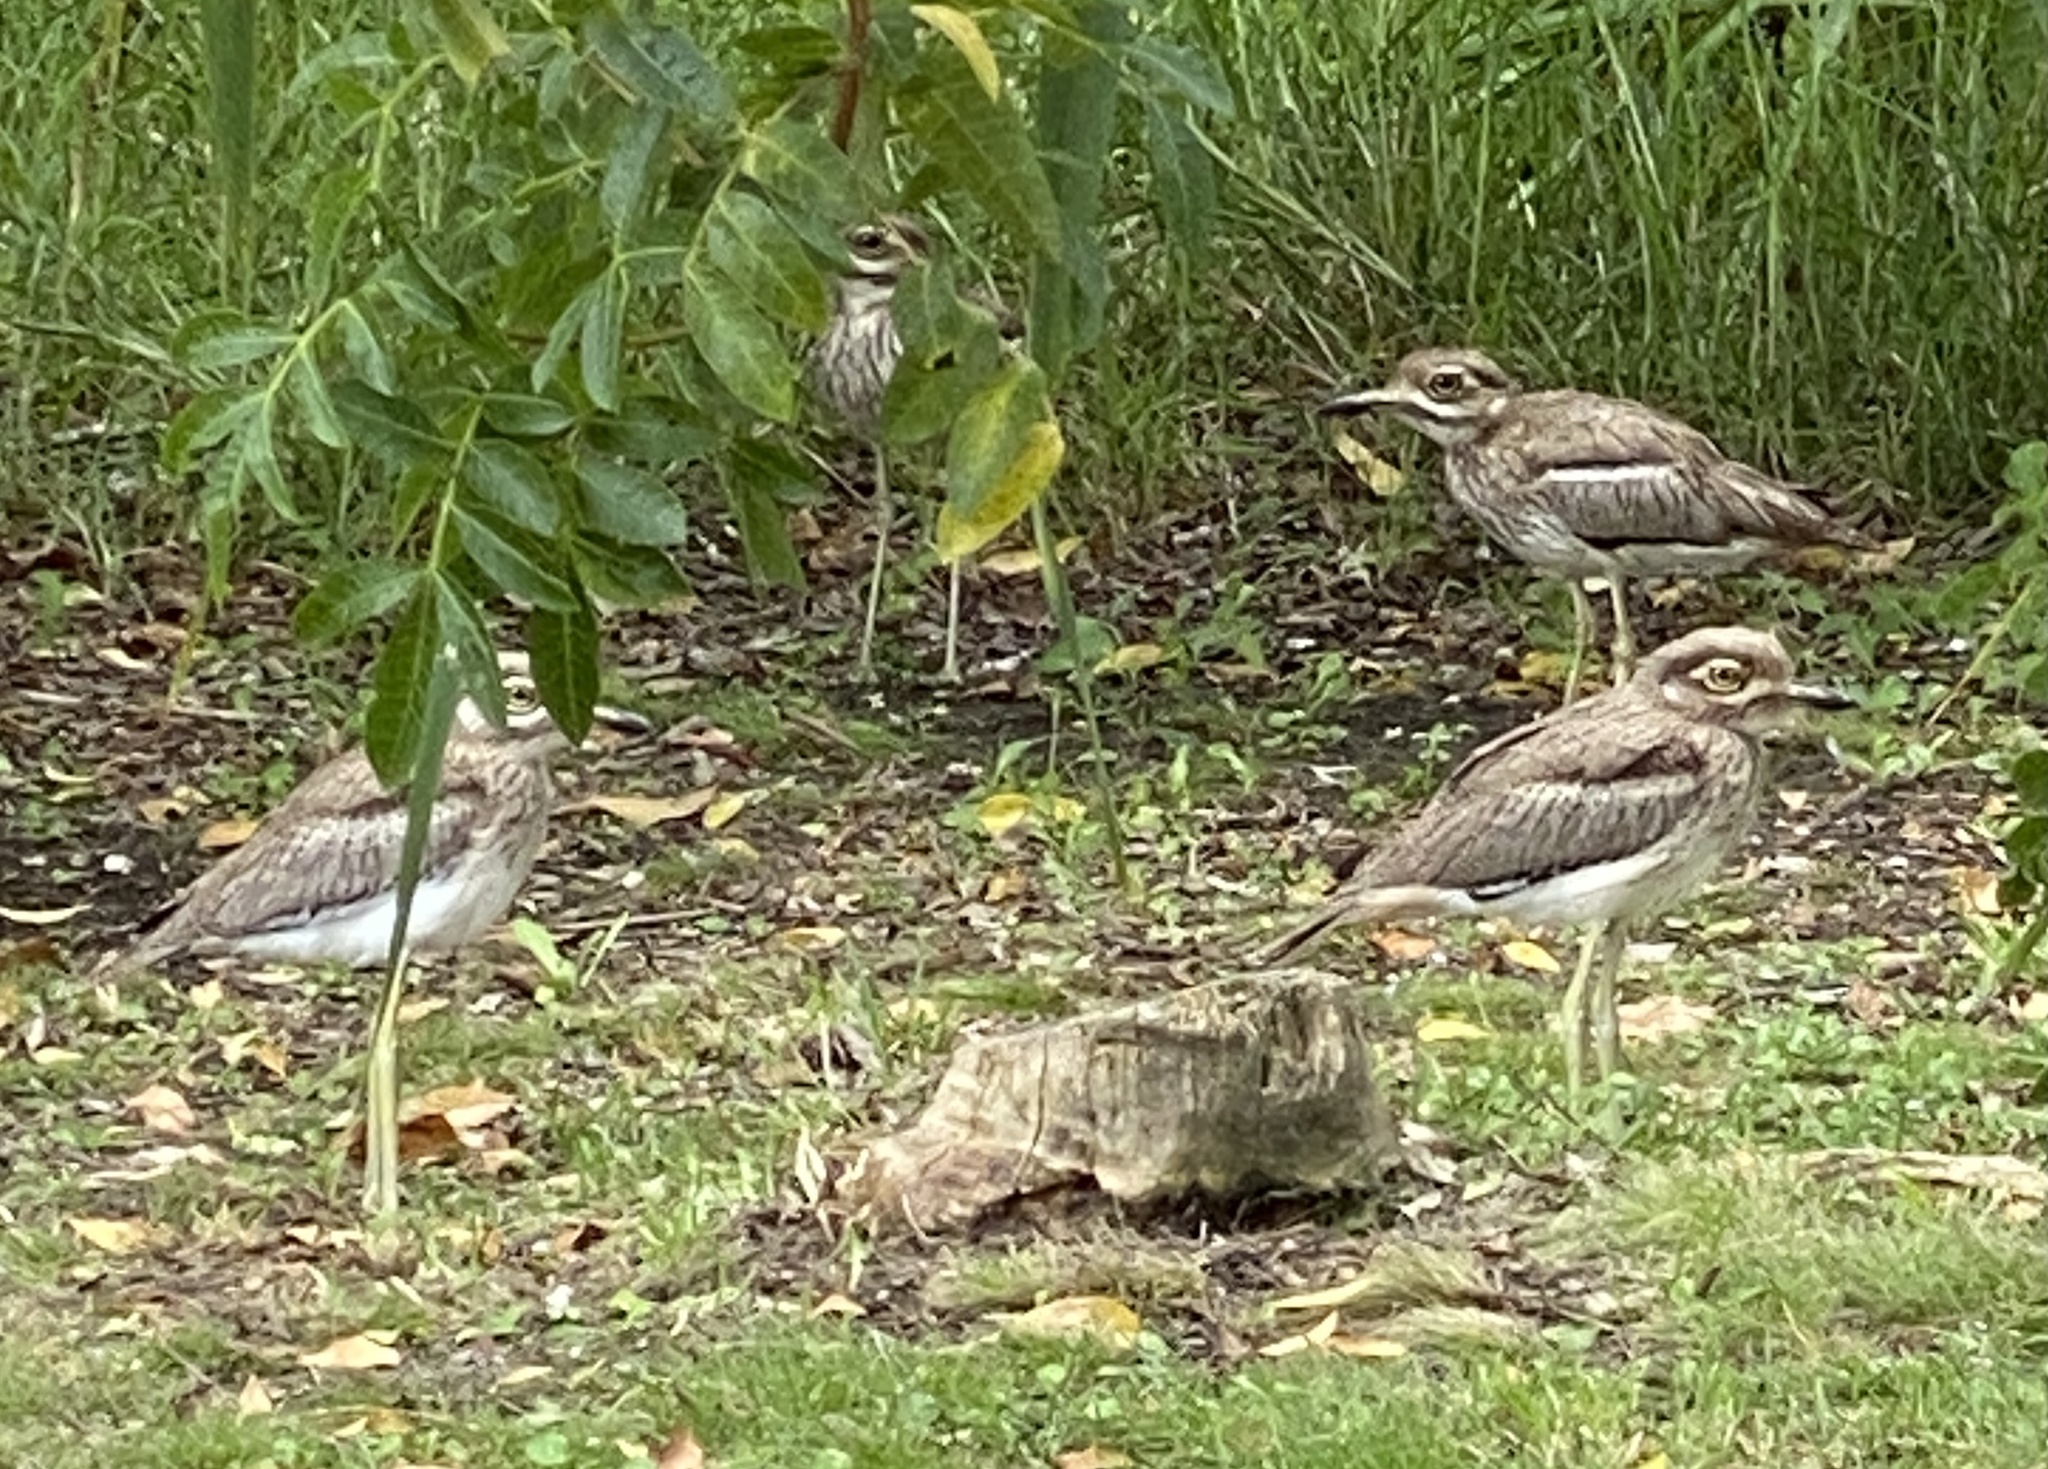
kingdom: Animalia
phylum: Chordata
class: Aves
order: Charadriiformes
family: Burhinidae
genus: Burhinus
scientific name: Burhinus vermiculatus
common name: Water thick-knee
